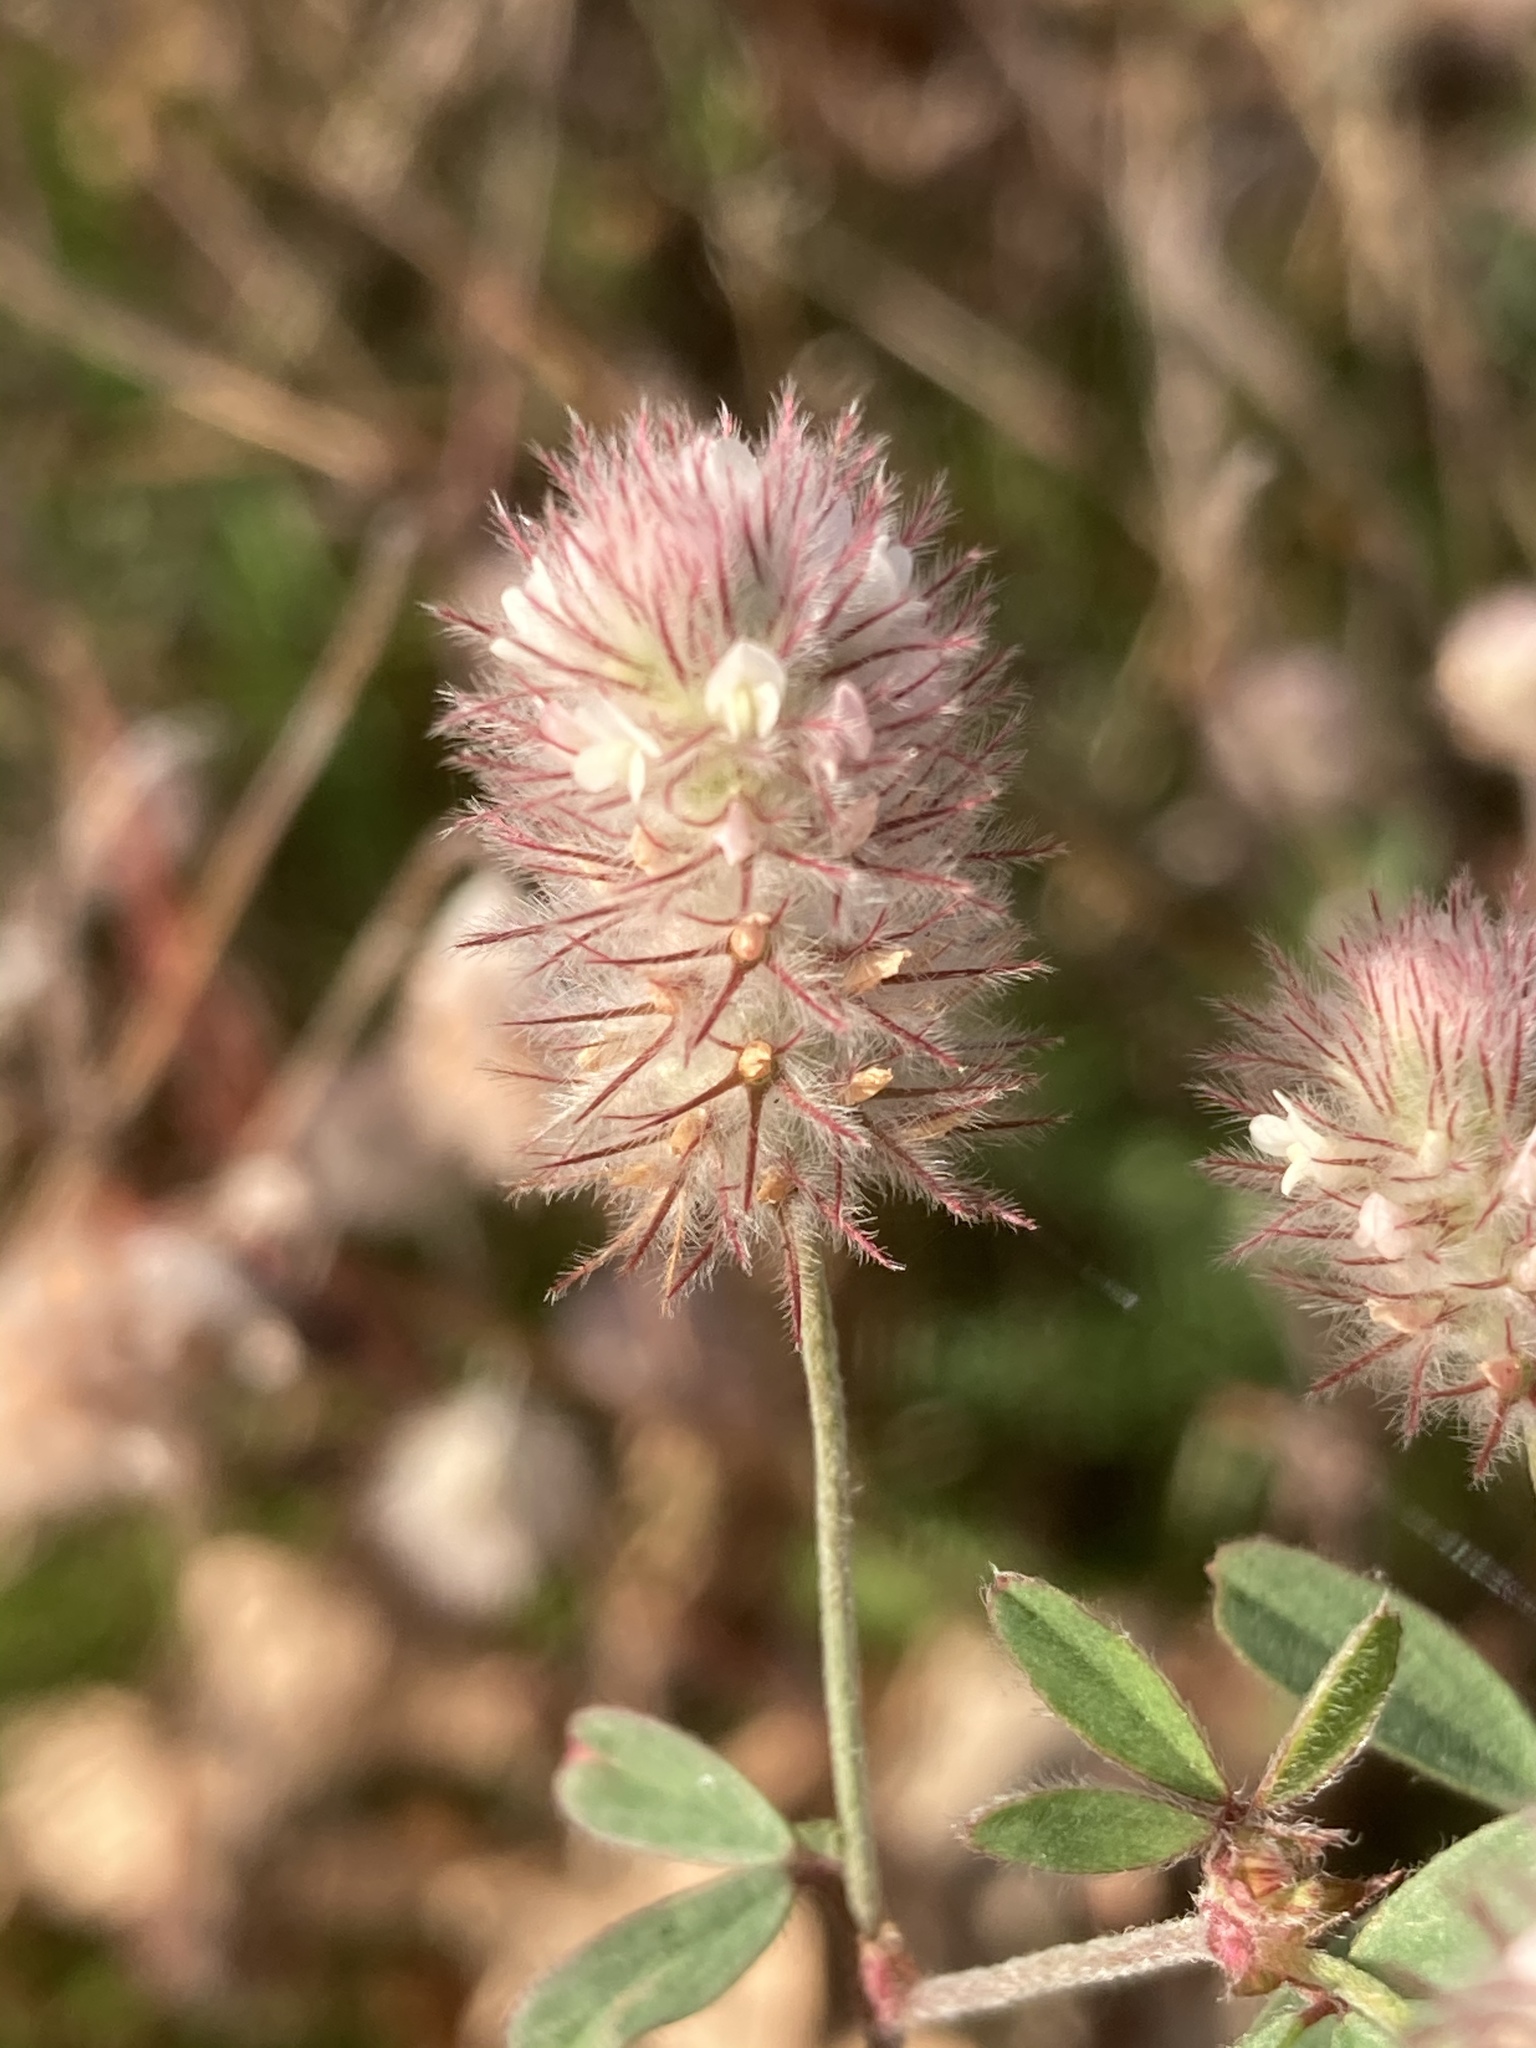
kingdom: Plantae
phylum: Tracheophyta
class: Magnoliopsida
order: Fabales
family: Fabaceae
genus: Trifolium
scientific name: Trifolium arvense
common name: Hare's-foot clover
